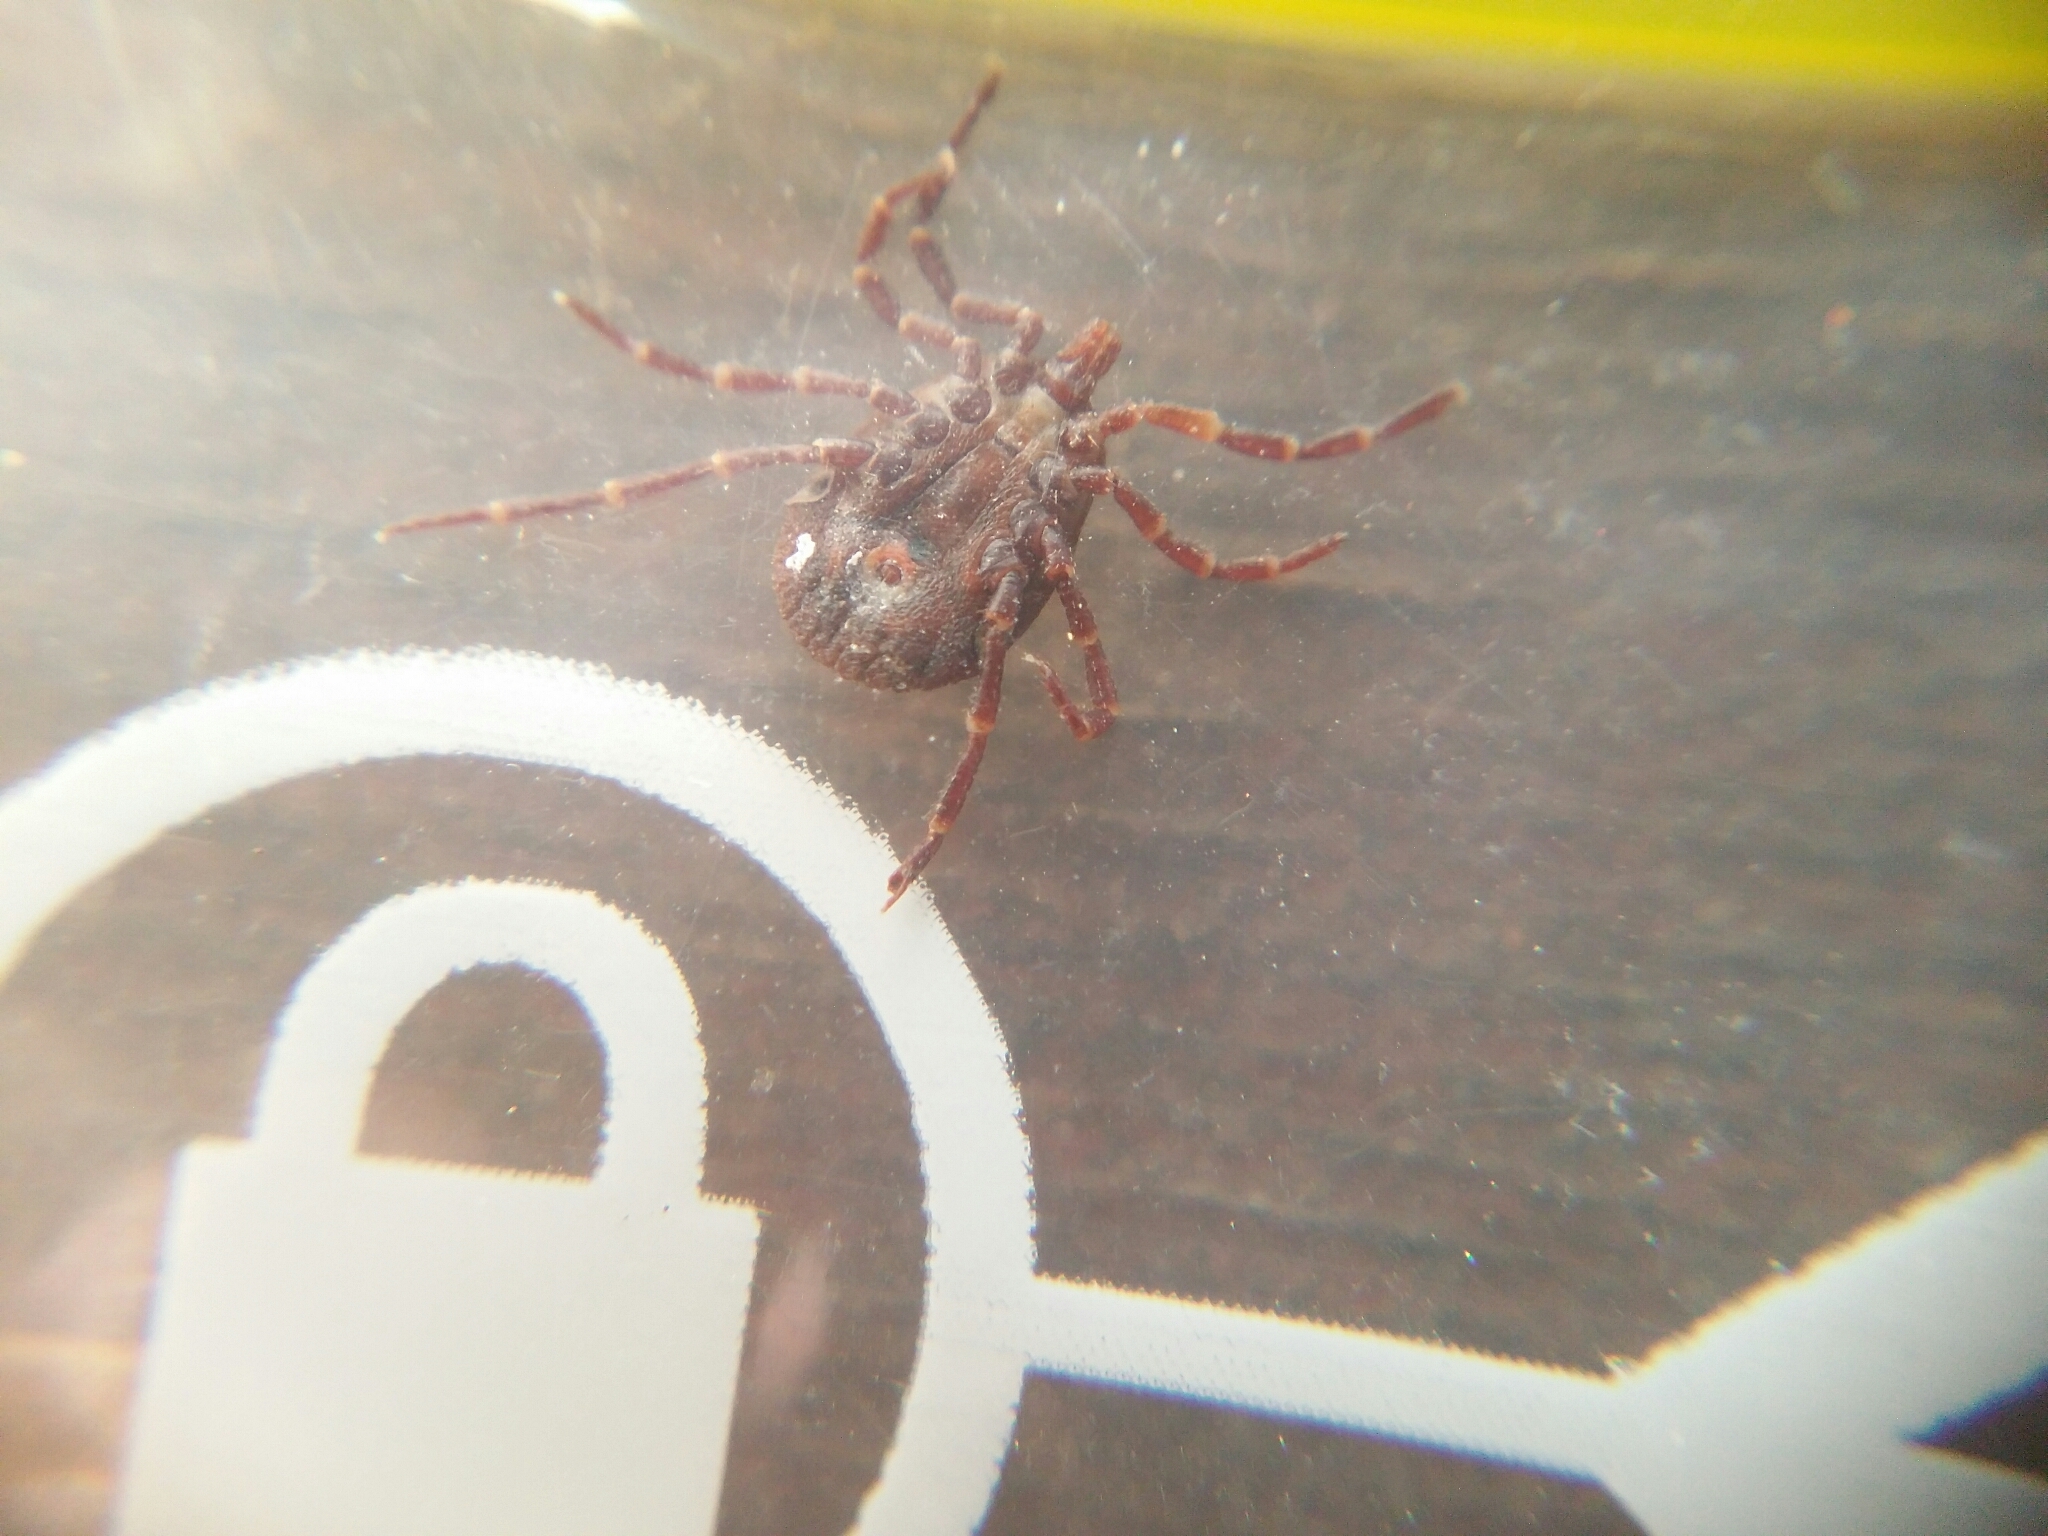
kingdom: Animalia
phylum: Arthropoda
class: Arachnida
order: Ixodida
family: Ixodidae
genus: Amblyomma
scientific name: Amblyomma triguttatum
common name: Kangaroo hard tick
